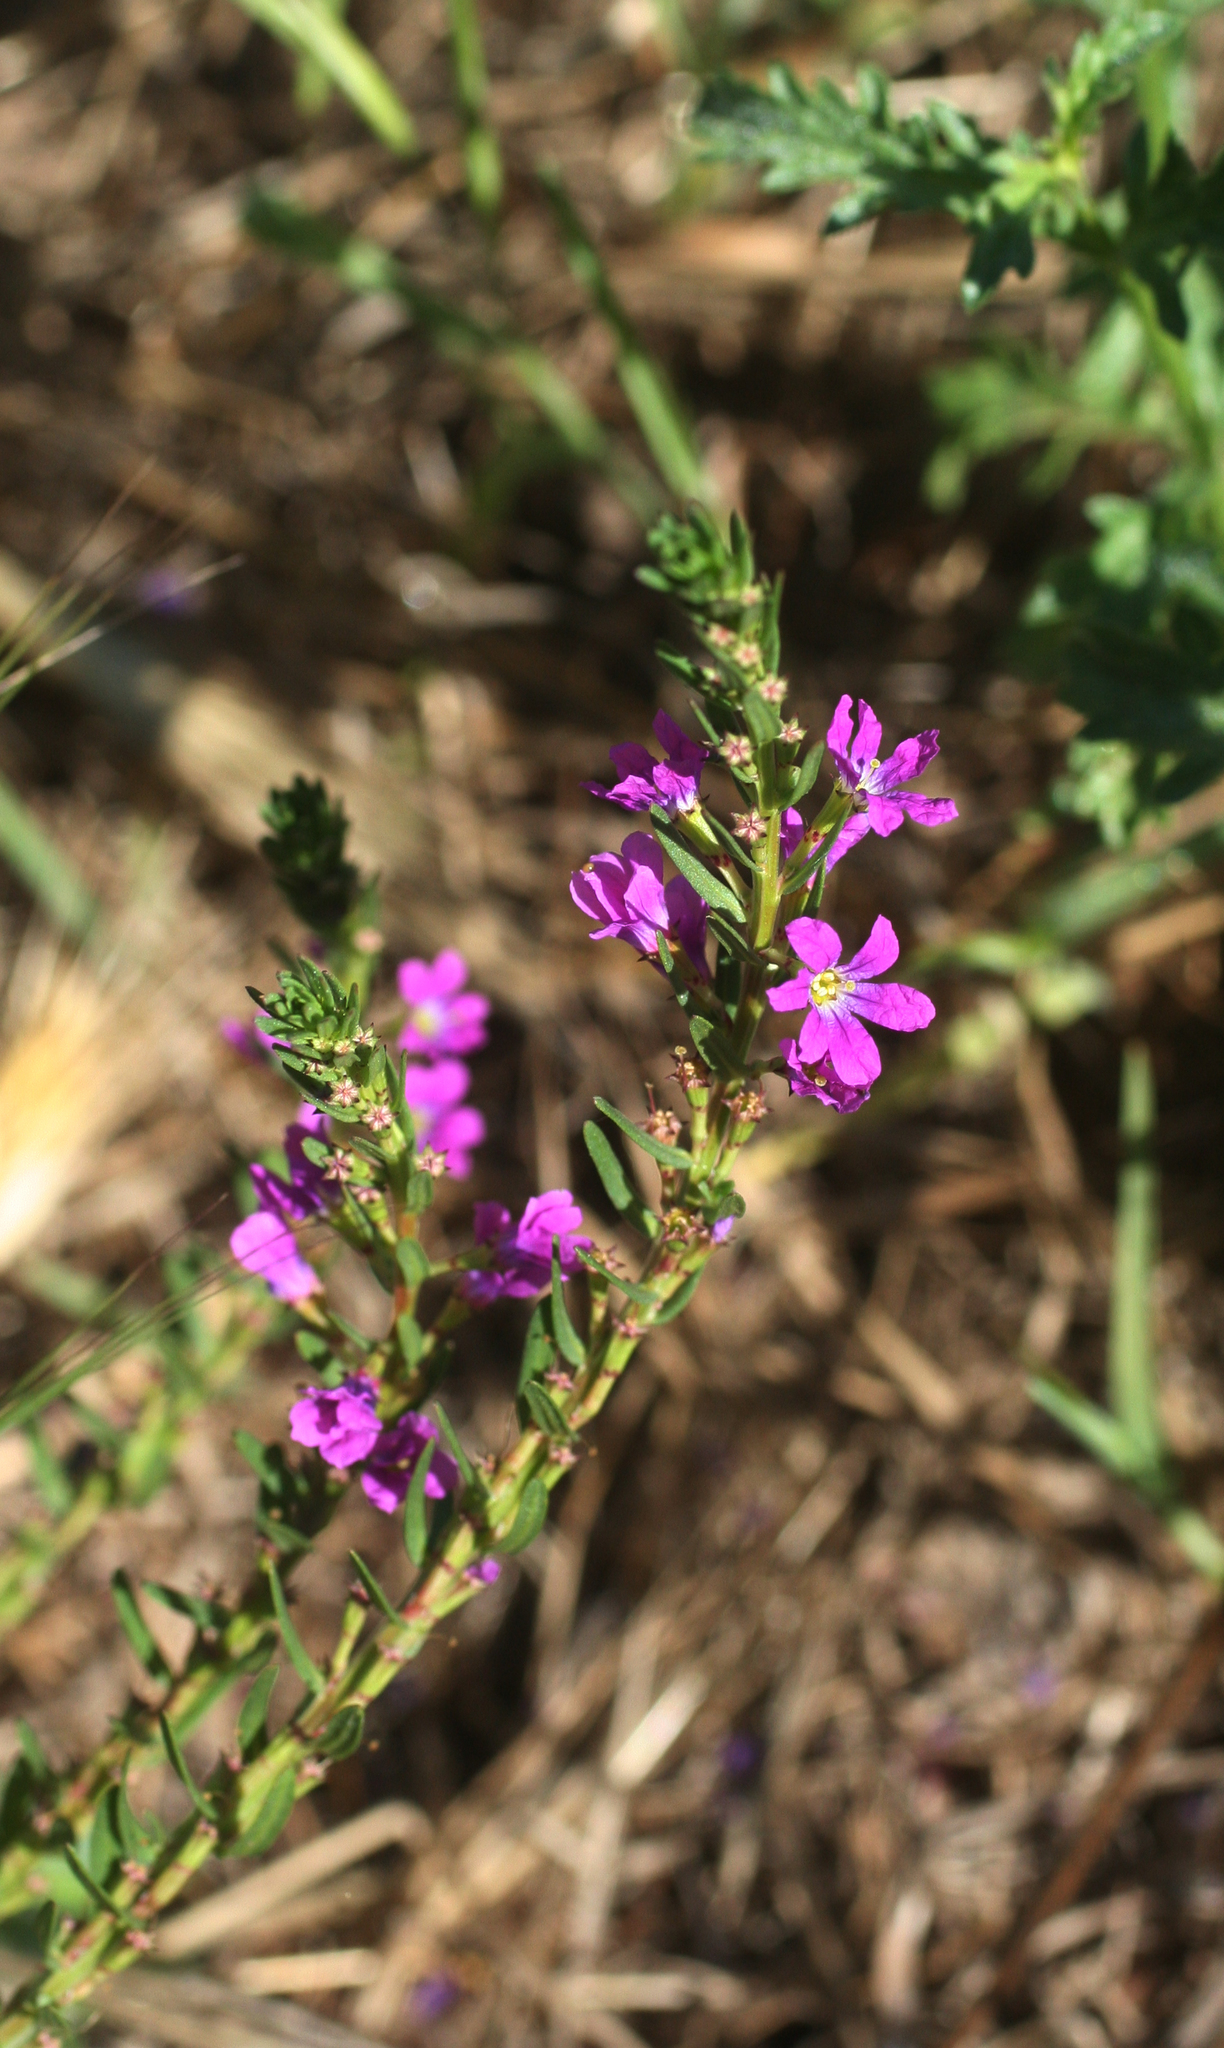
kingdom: Plantae
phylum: Tracheophyta
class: Magnoliopsida
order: Myrtales
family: Lythraceae
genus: Lythrum
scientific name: Lythrum junceum
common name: False grass-poly
